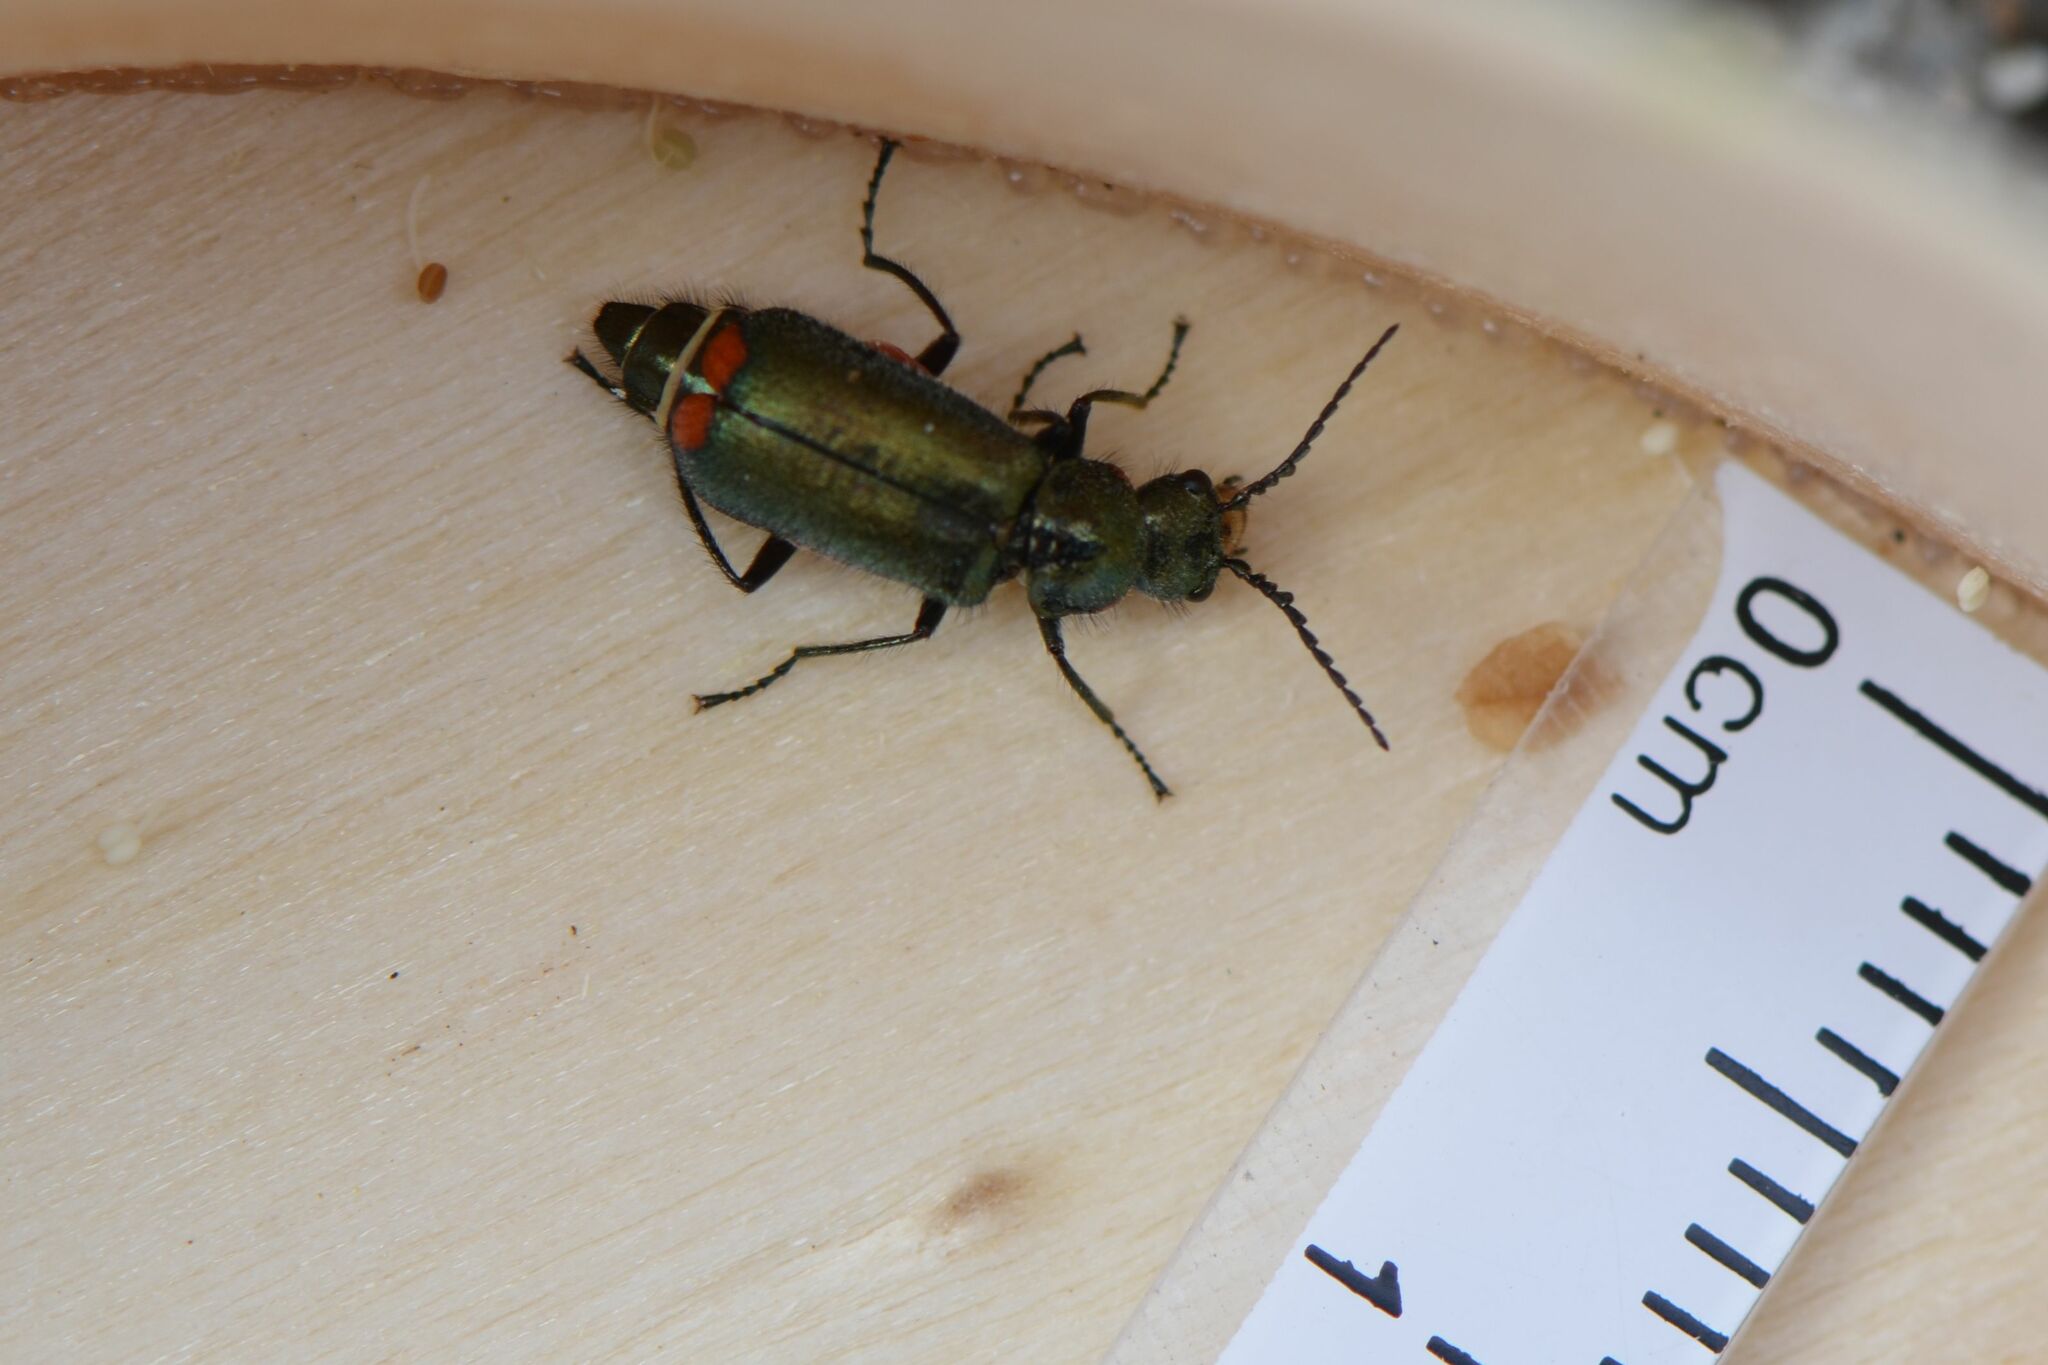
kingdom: Animalia
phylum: Arthropoda
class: Insecta
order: Coleoptera
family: Melyridae
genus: Malachius
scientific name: Malachius bipustulatus
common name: Malachite beetle
